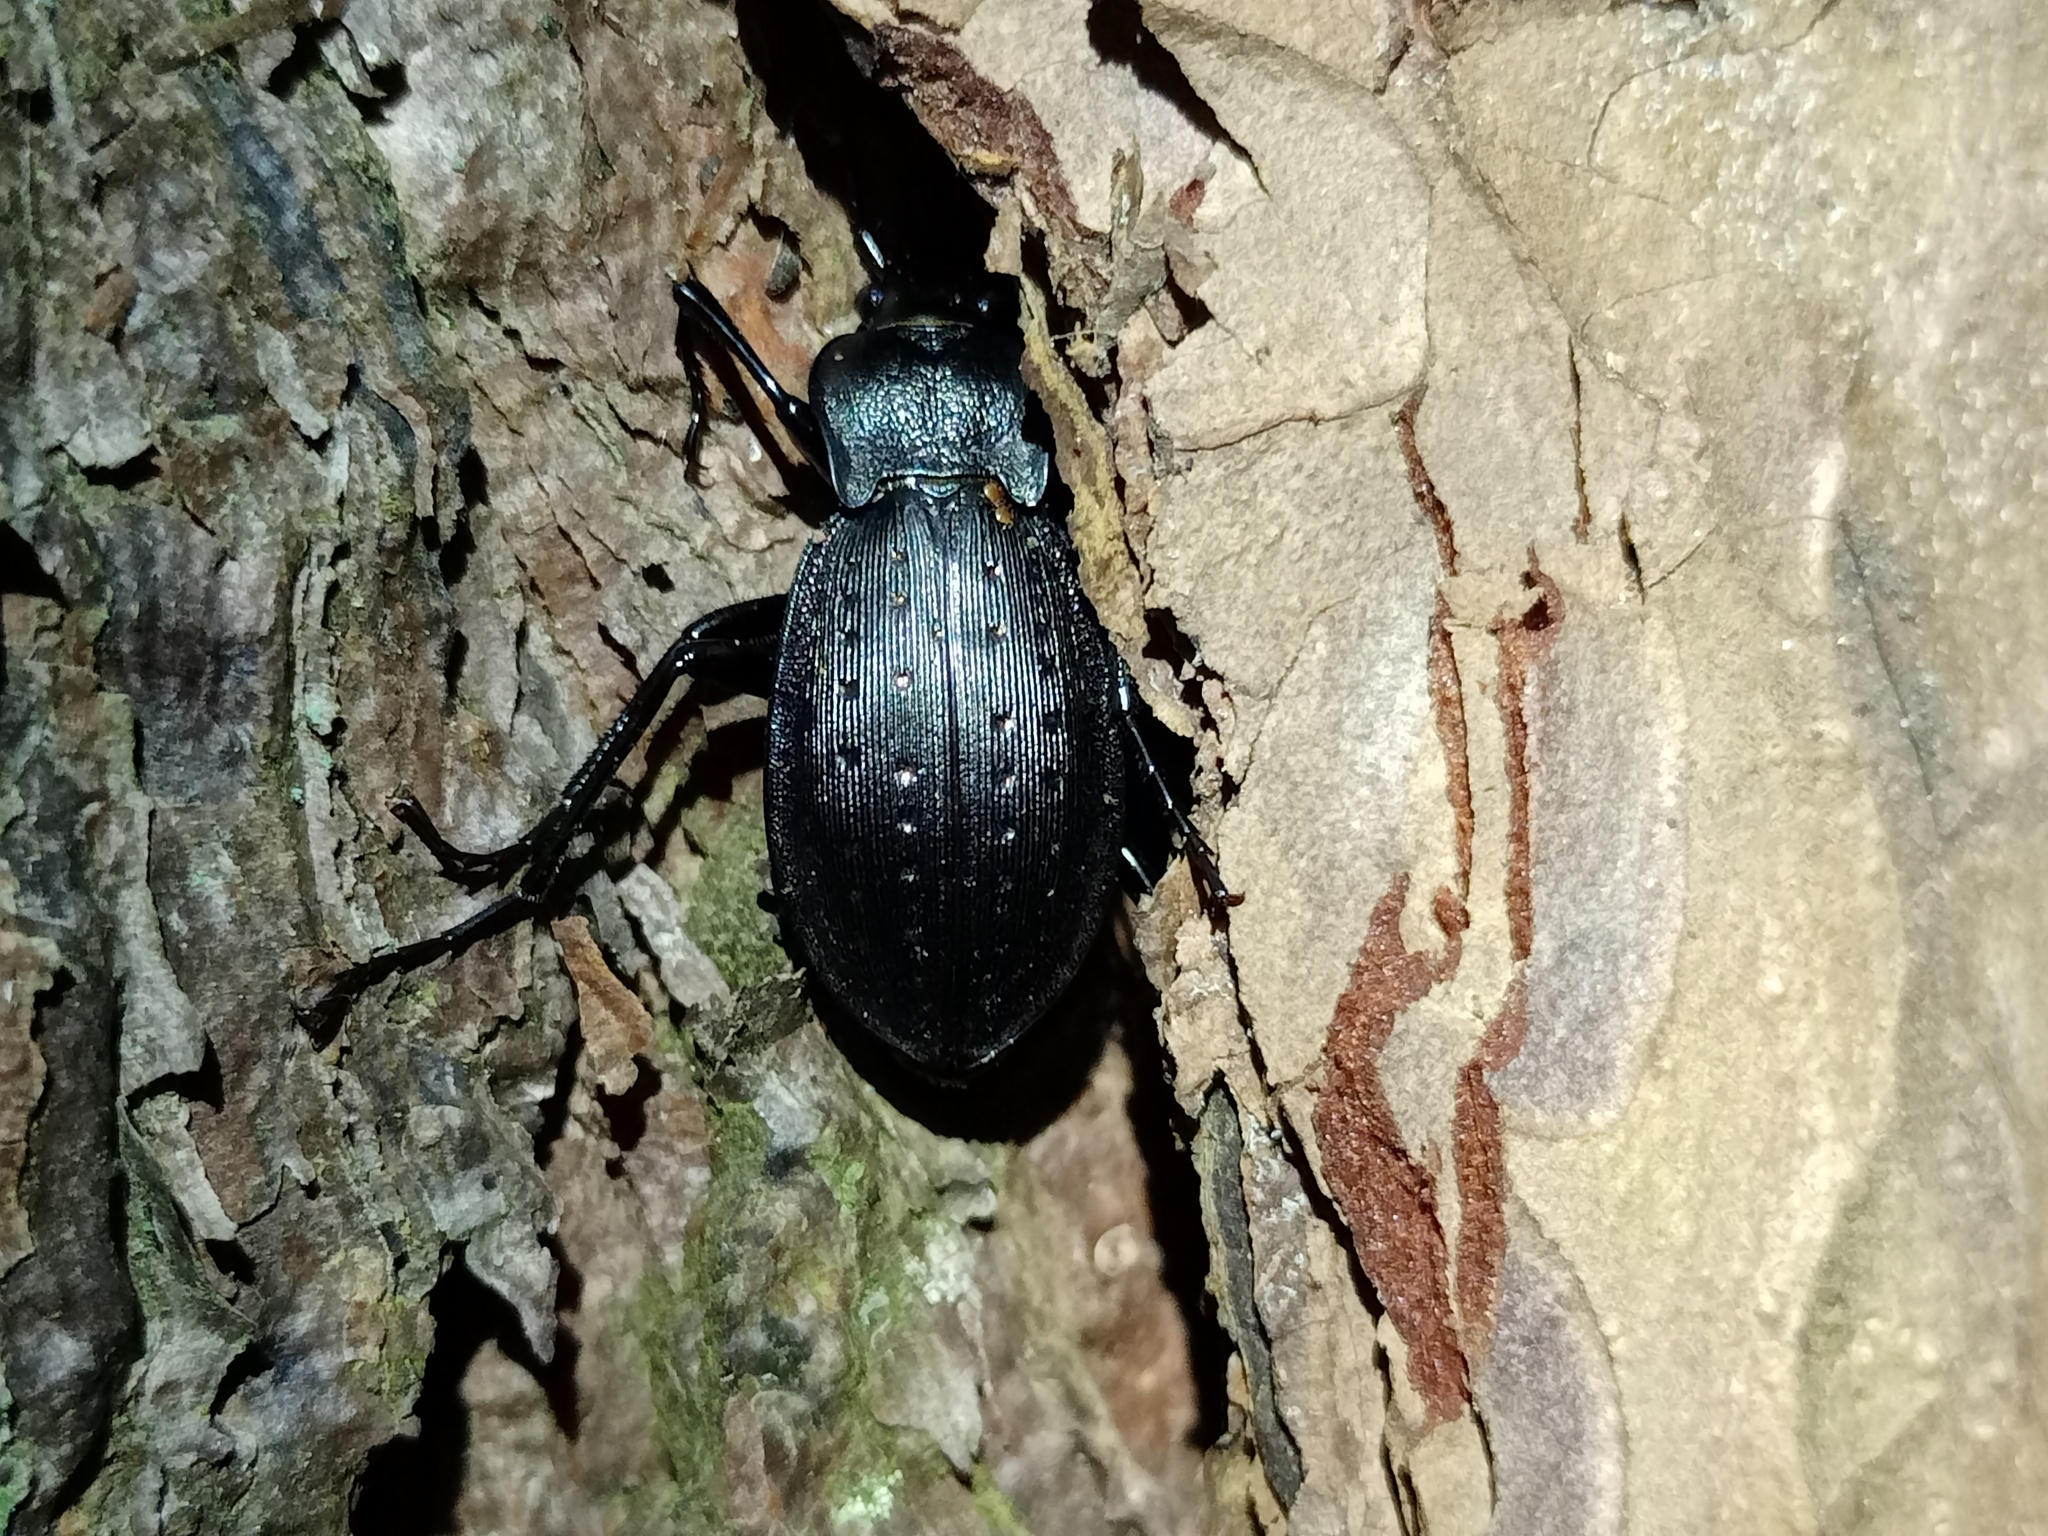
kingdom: Animalia
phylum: Arthropoda
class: Insecta
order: Coleoptera
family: Carabidae
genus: Carabus
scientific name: Carabus hortensis
